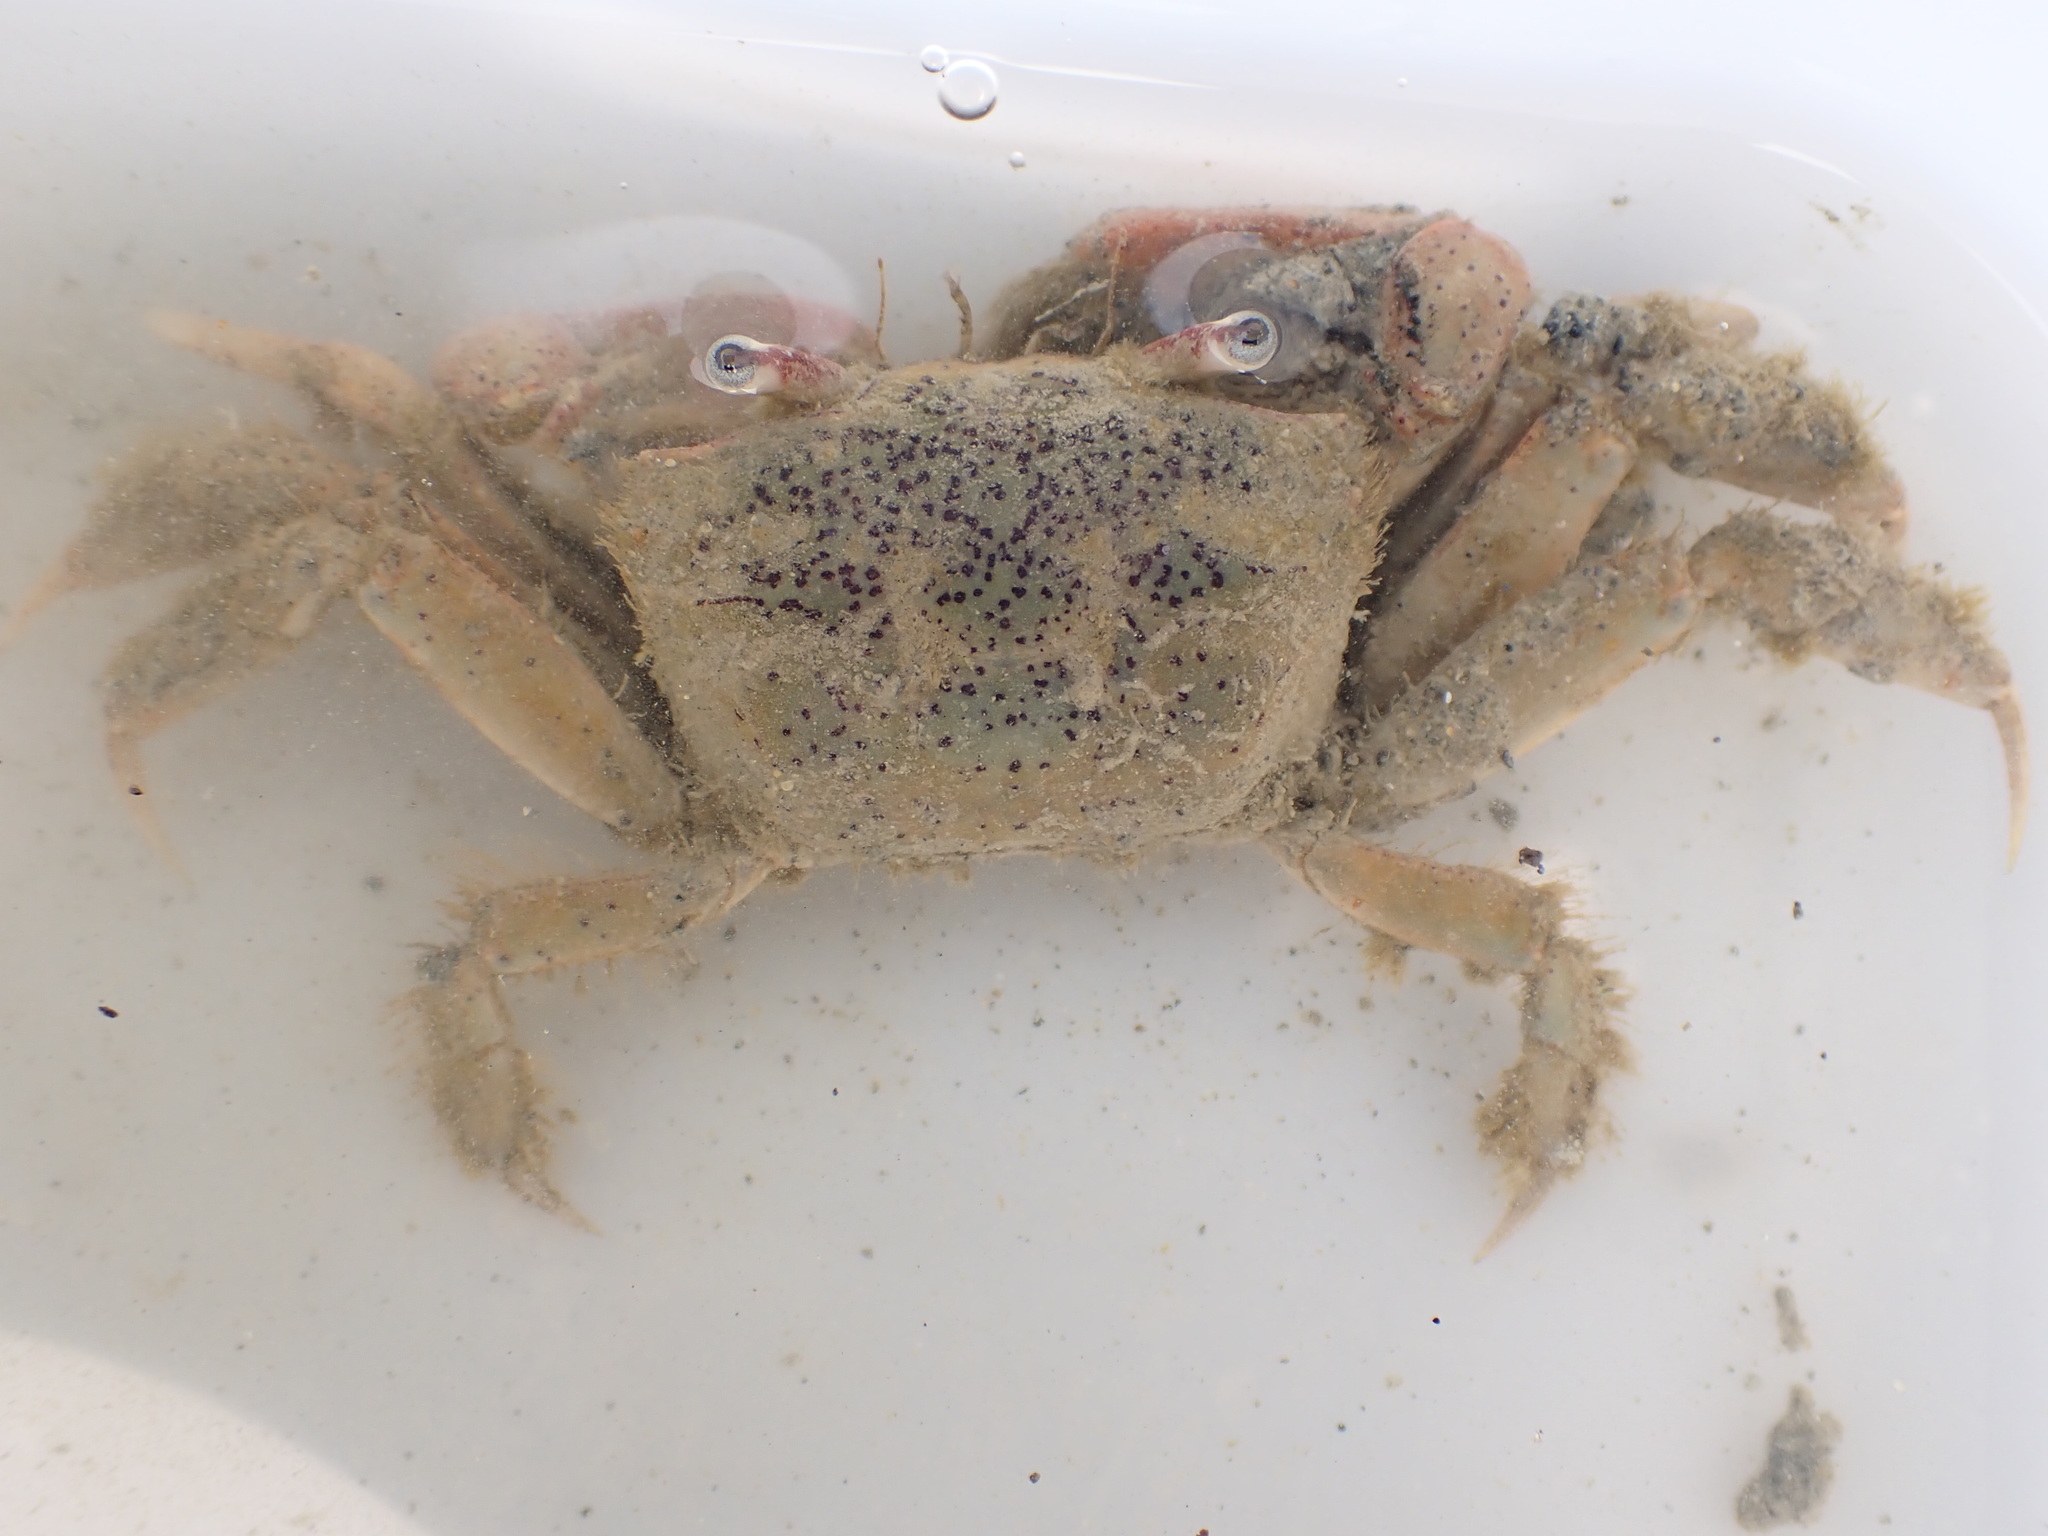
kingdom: Animalia
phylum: Arthropoda
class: Malacostraca
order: Decapoda
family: Macrophthalmidae
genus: Hemiplax
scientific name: Hemiplax hirtipes
